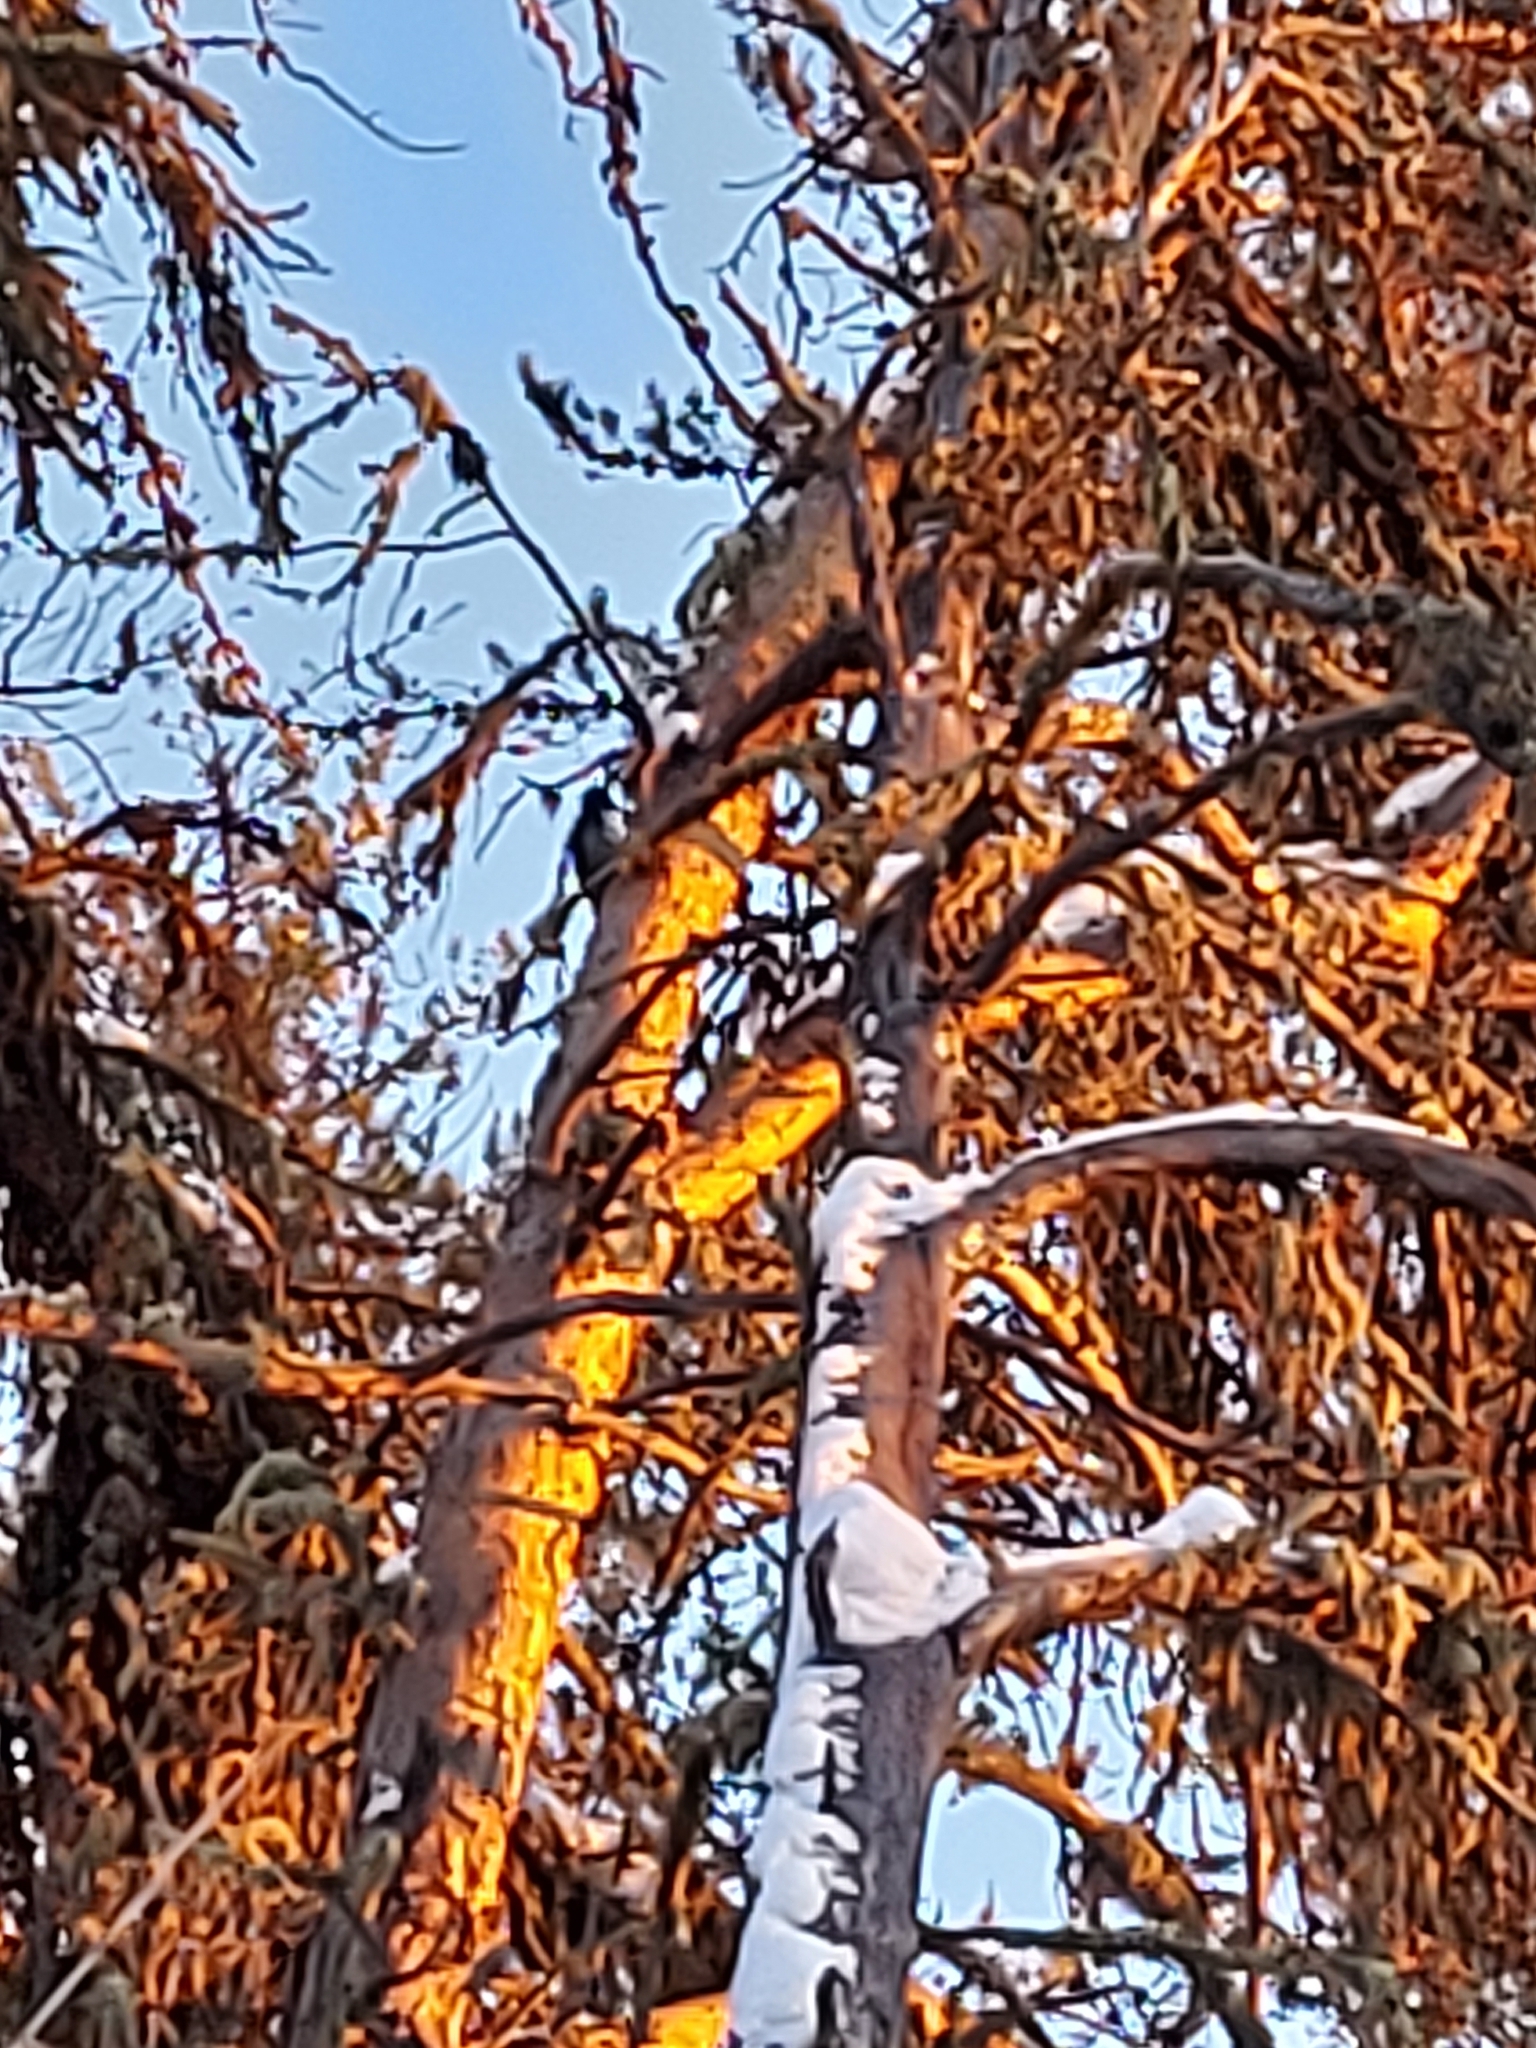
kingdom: Animalia
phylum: Chordata
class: Aves
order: Piciformes
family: Picidae
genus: Picoides
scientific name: Picoides arcticus
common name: Black-backed woodpecker
